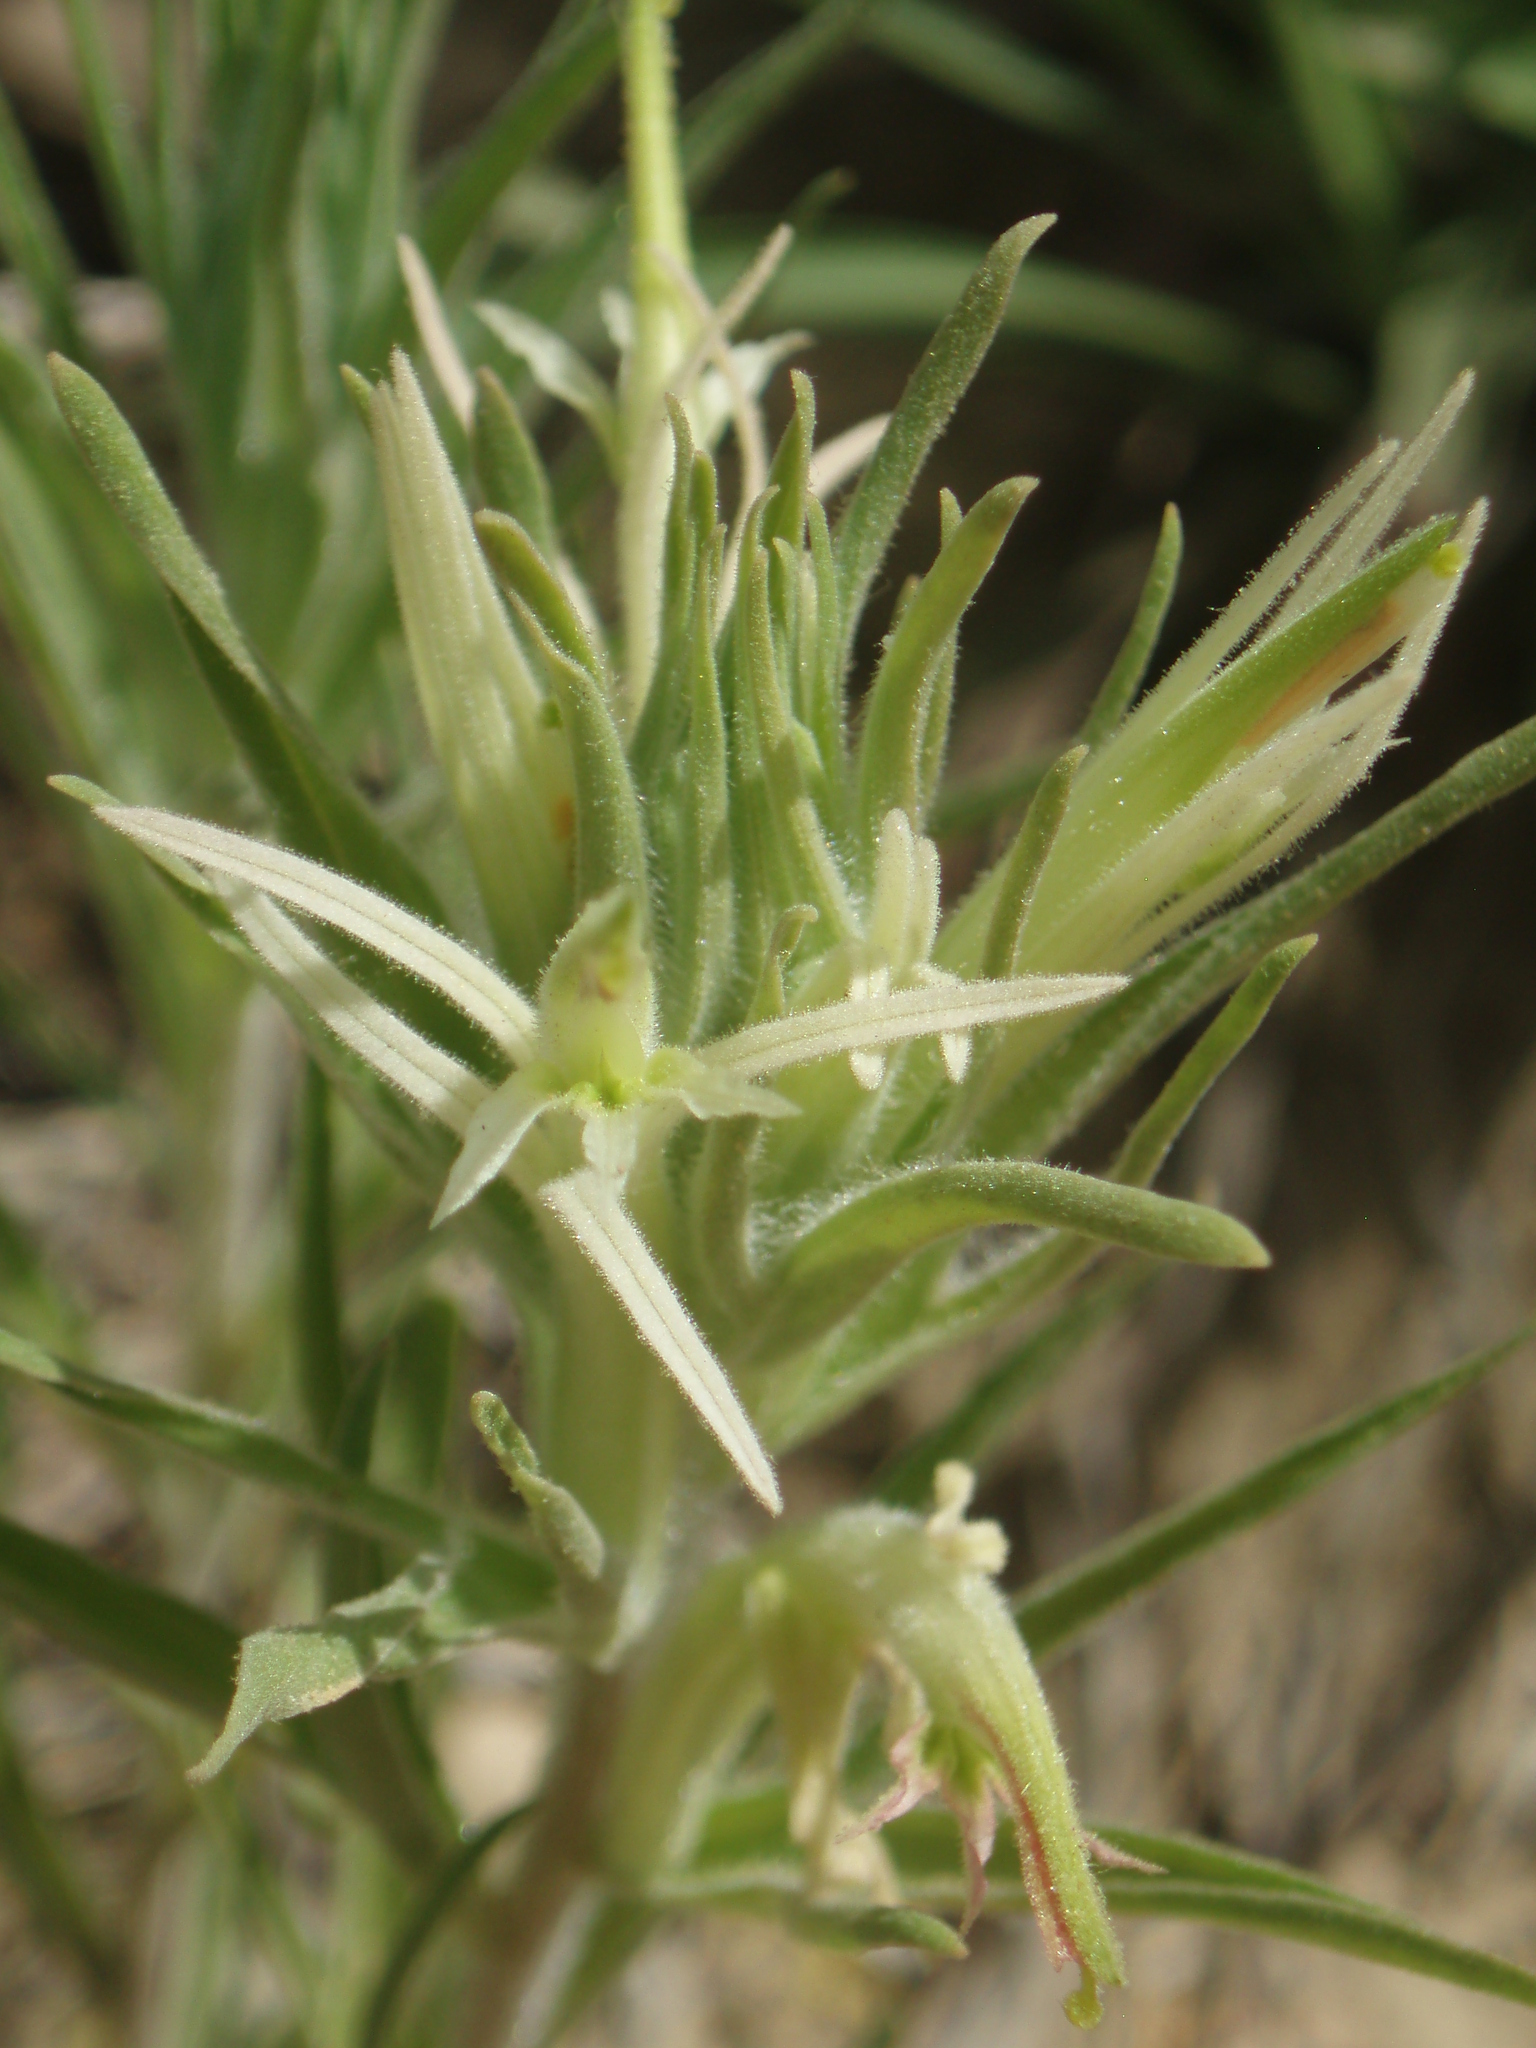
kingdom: Plantae
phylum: Tracheophyta
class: Magnoliopsida
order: Lamiales
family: Orobanchaceae
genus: Castilleja
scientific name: Castilleja sessiliflora
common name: Downy paintbrush
